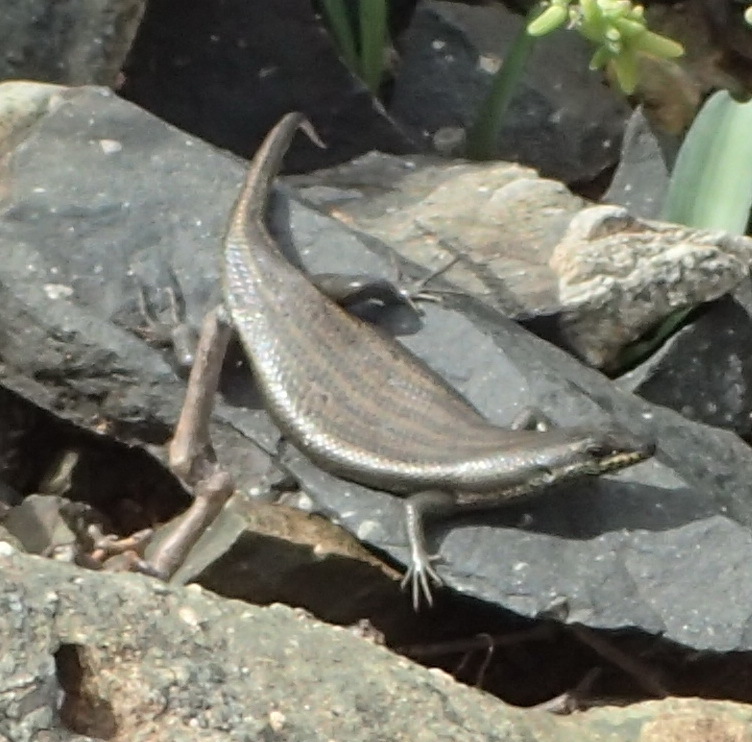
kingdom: Animalia
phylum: Chordata
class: Squamata
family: Scincidae
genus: Trachylepis
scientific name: Trachylepis sulcata
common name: Western rock skink
